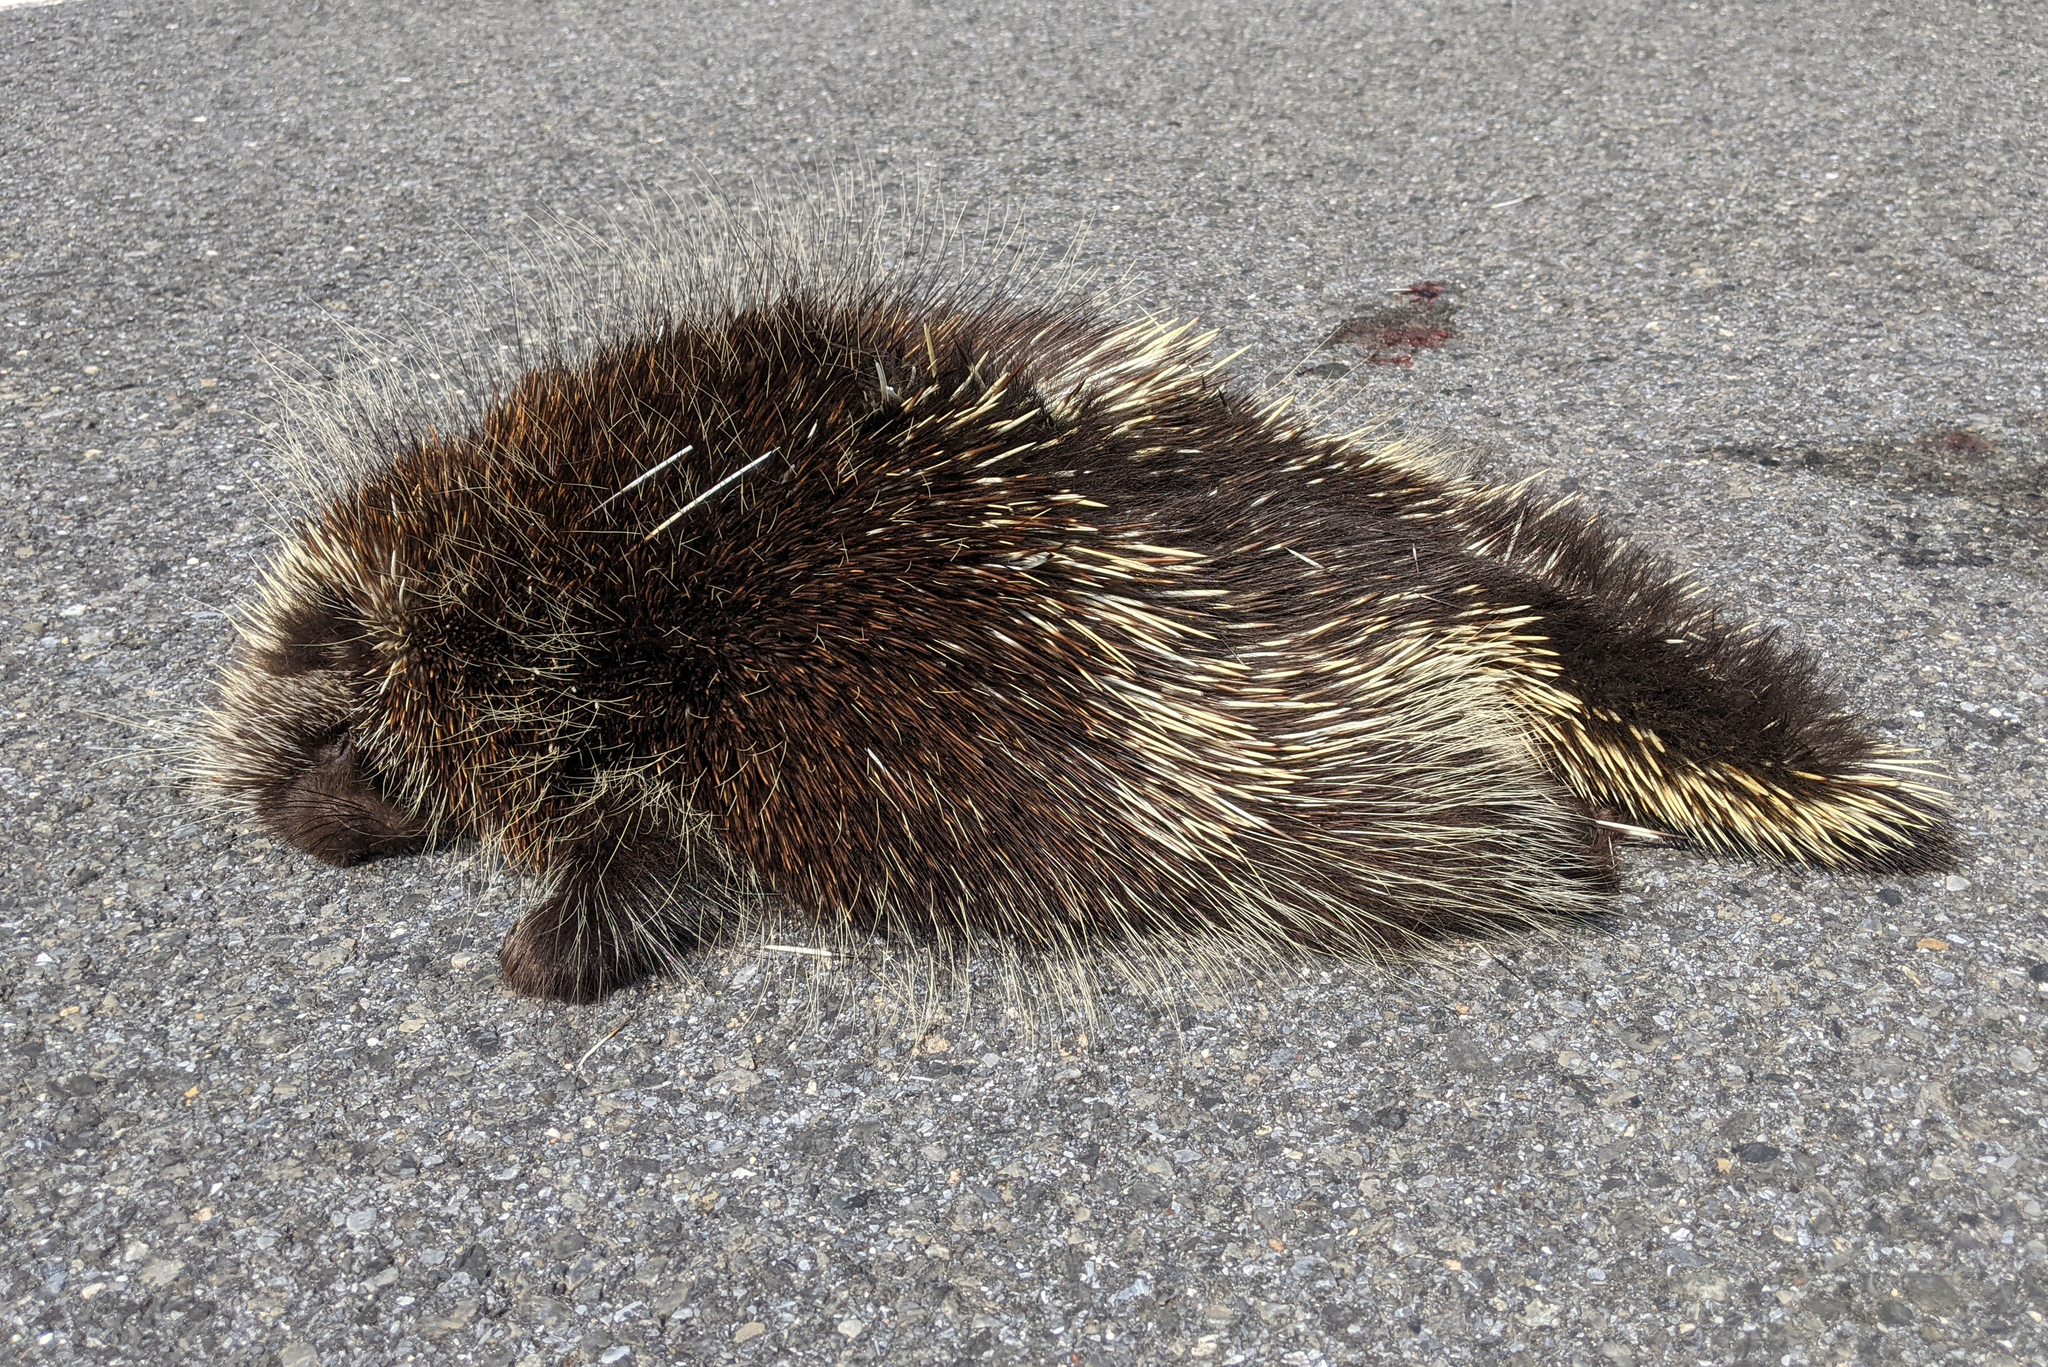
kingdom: Animalia
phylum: Chordata
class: Mammalia
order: Rodentia
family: Erethizontidae
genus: Erethizon
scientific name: Erethizon dorsatus
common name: North american porcupine
